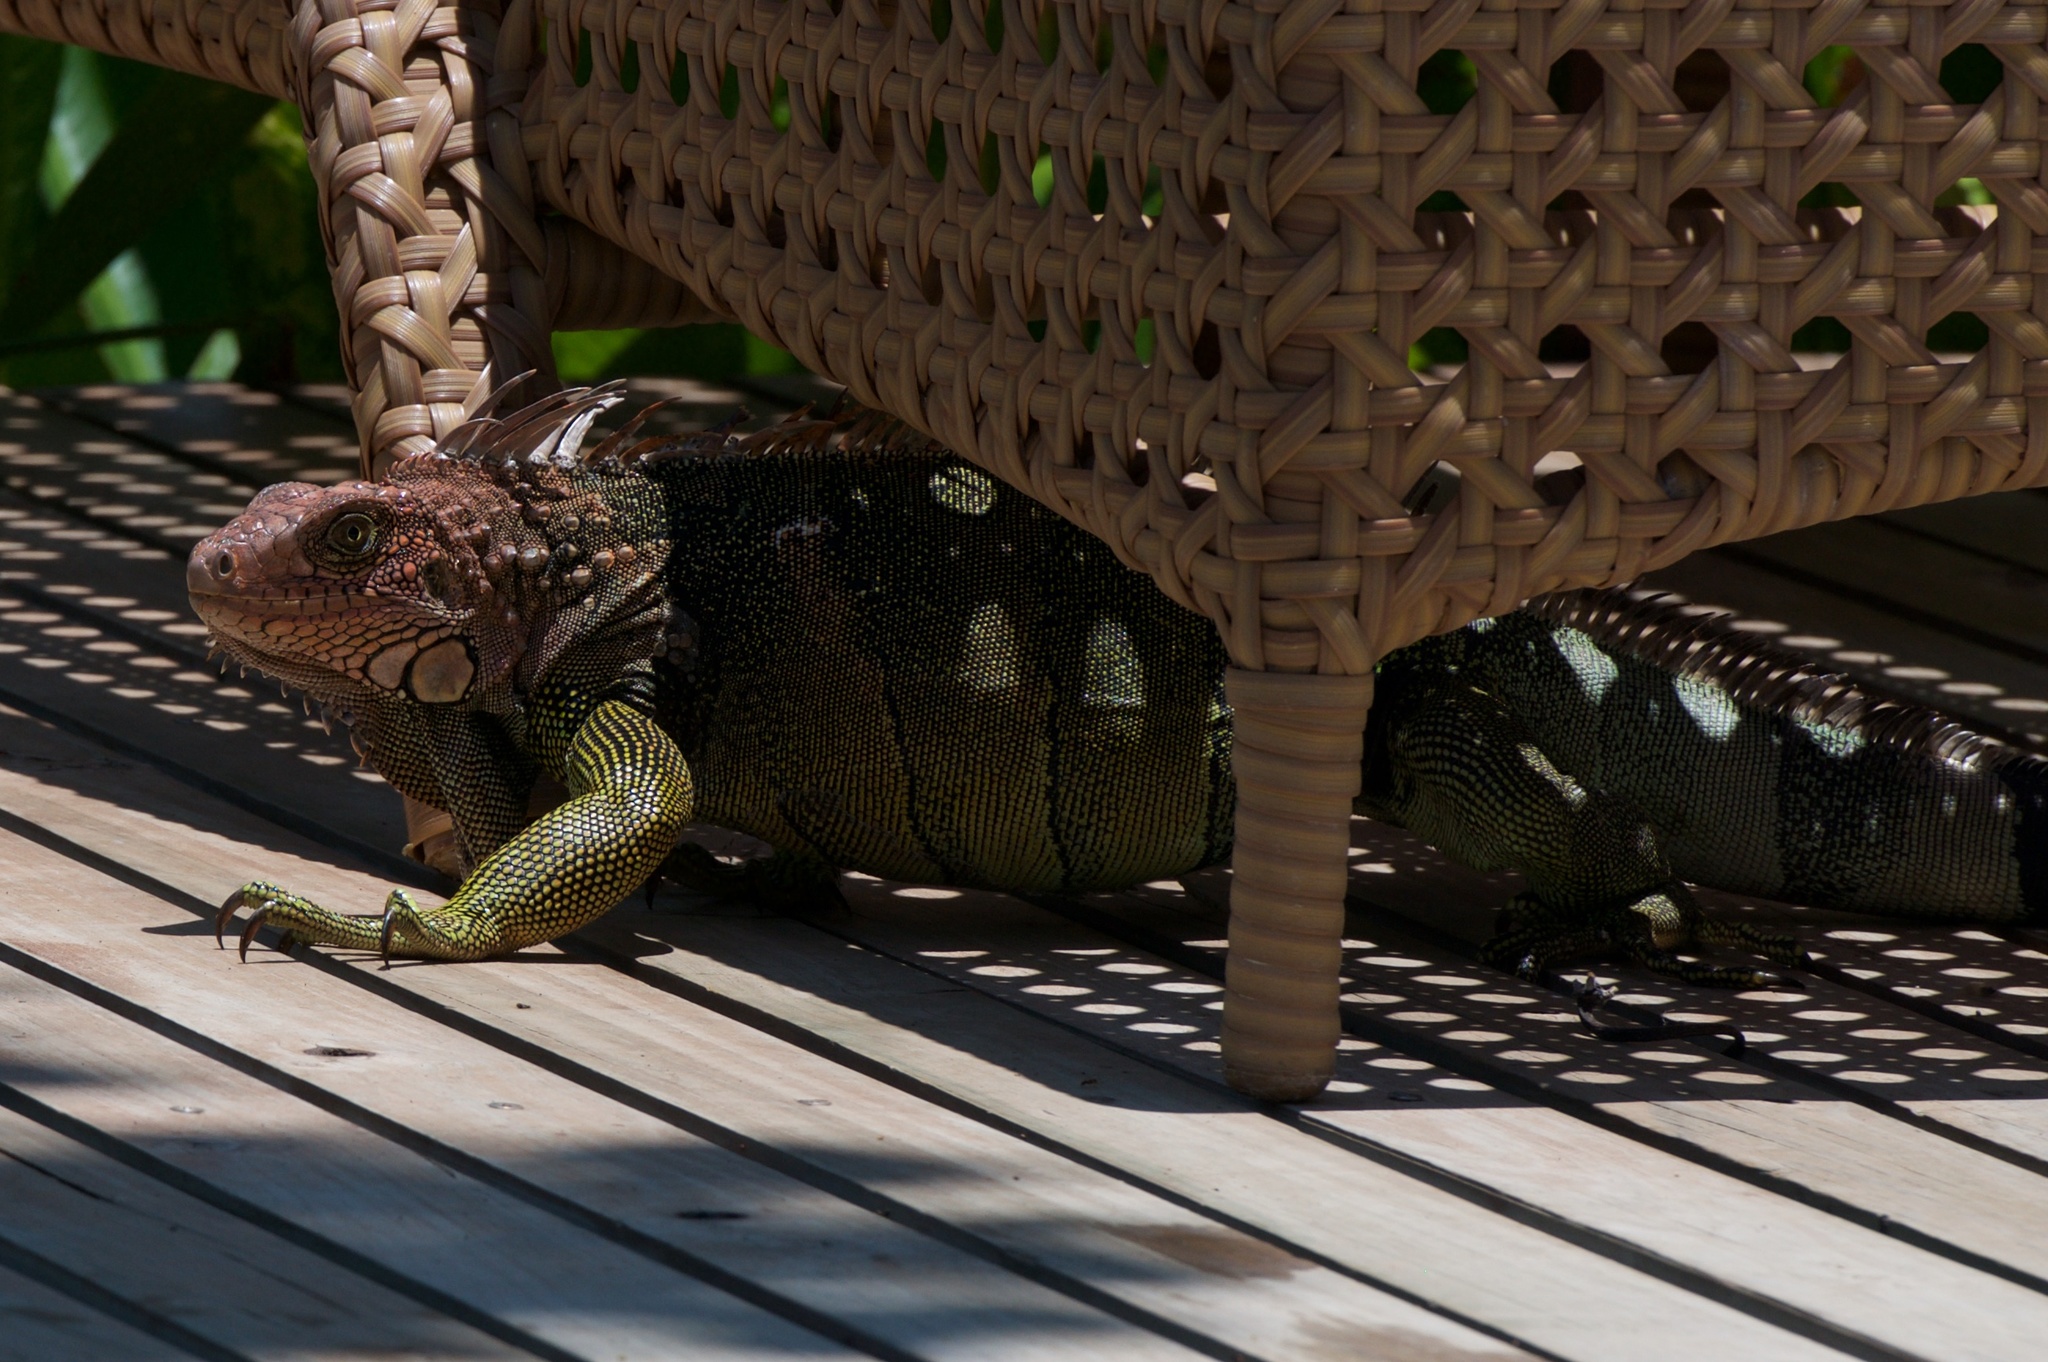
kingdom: Animalia
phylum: Chordata
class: Squamata
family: Iguanidae
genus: Iguana
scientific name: Iguana iguana
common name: Green iguana
